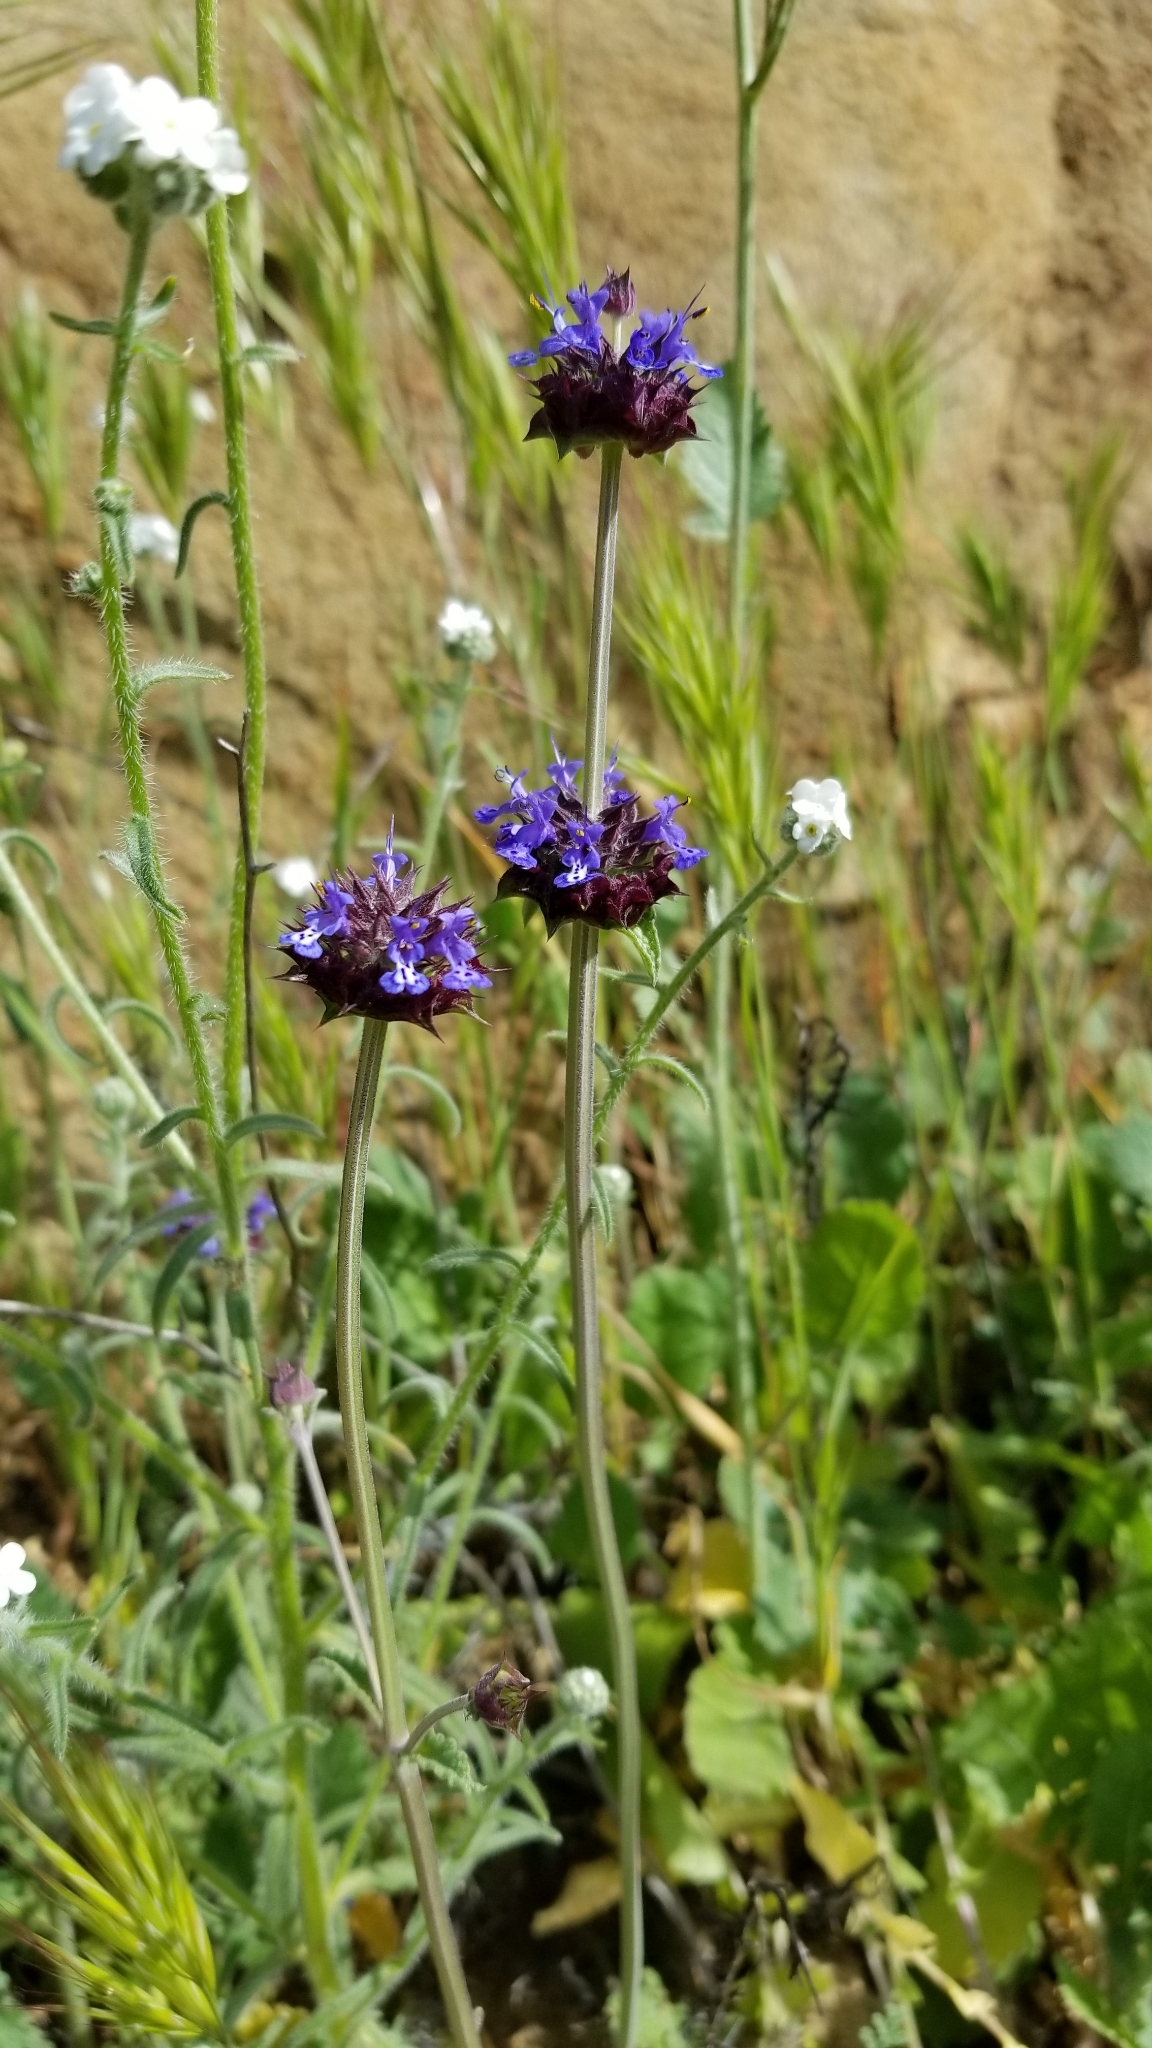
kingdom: Plantae
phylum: Tracheophyta
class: Magnoliopsida
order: Lamiales
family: Lamiaceae
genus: Salvia
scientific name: Salvia columbariae
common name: Chia
